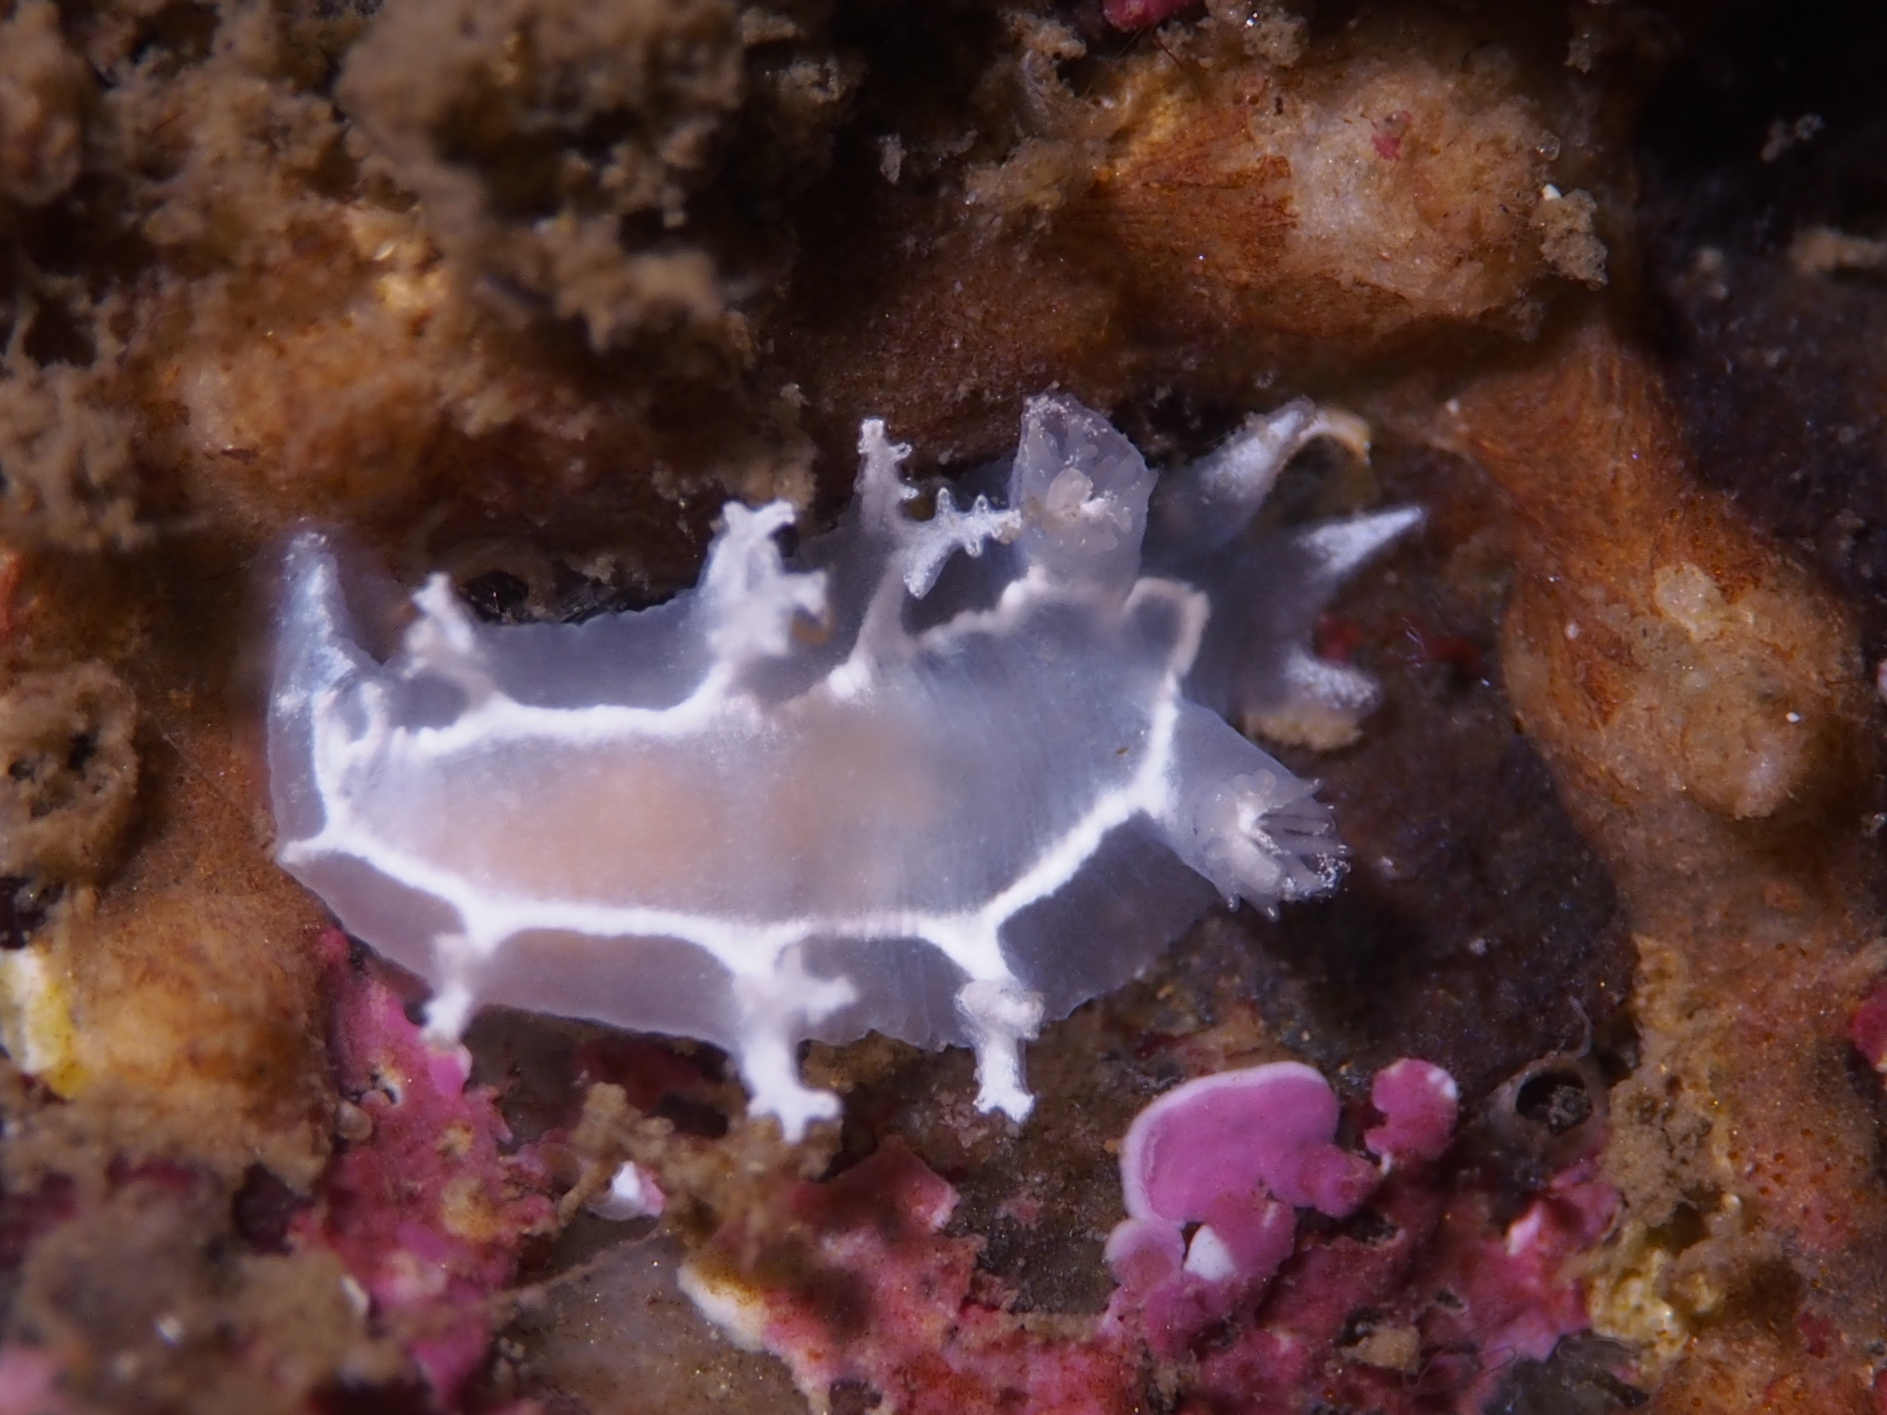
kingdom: Animalia
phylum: Mollusca
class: Gastropoda
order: Nudibranchia
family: Tritoniidae
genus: Duvaucelia
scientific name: Duvaucelia lineata
